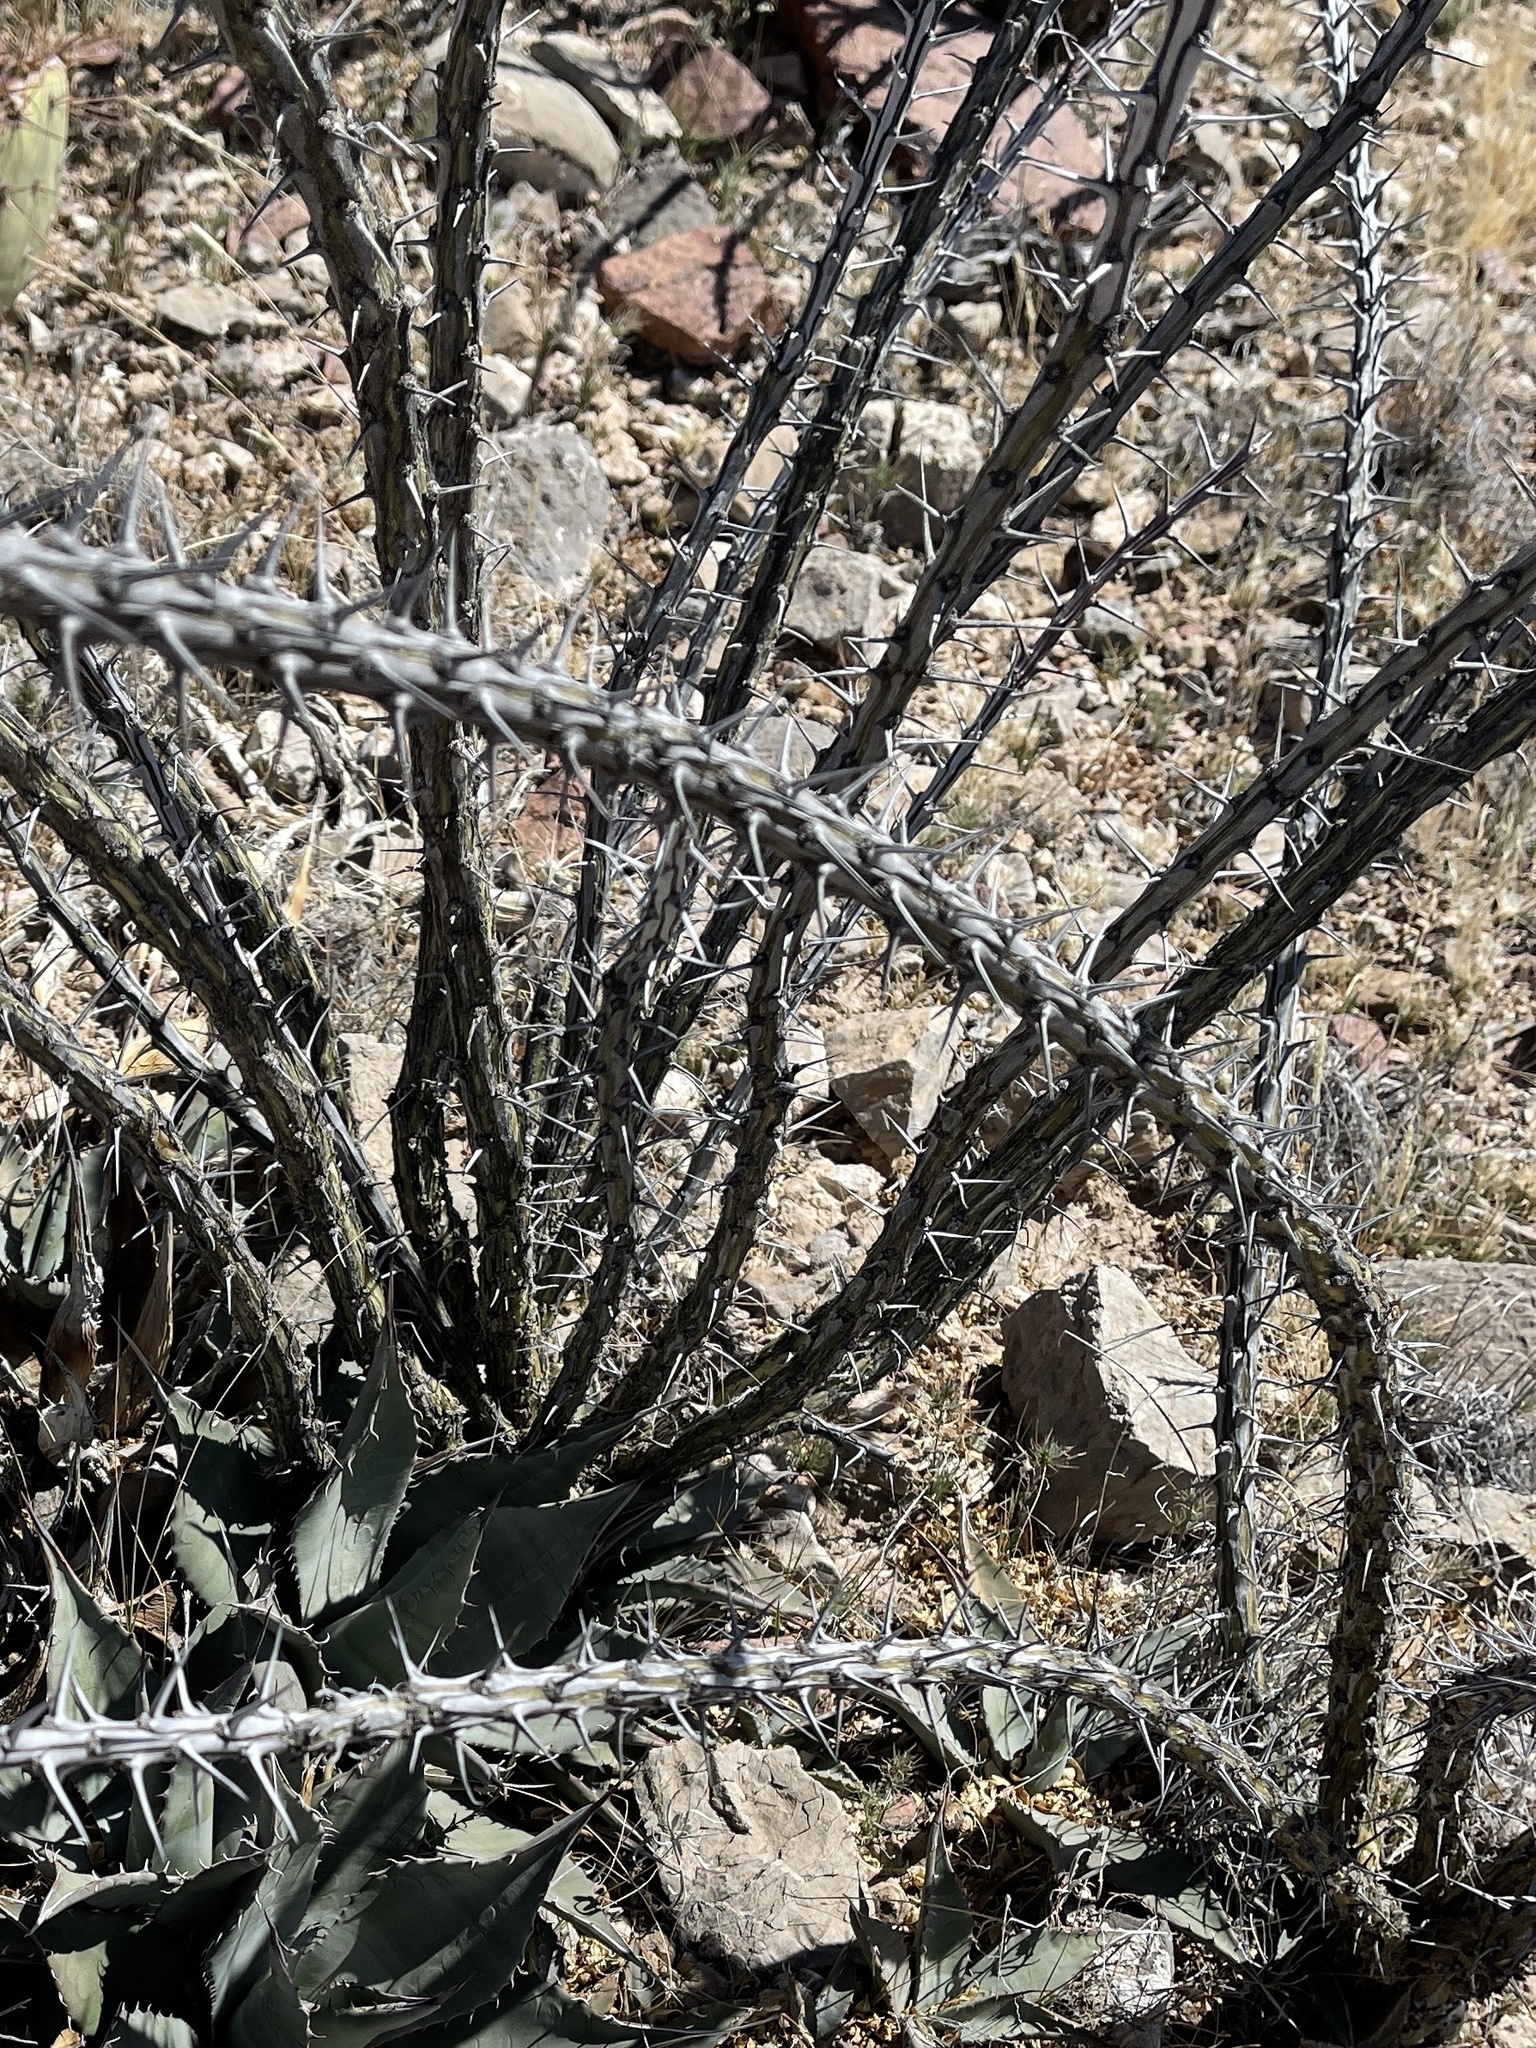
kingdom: Plantae
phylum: Tracheophyta
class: Magnoliopsida
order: Ericales
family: Fouquieriaceae
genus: Fouquieria
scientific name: Fouquieria splendens
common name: Vine-cactus
